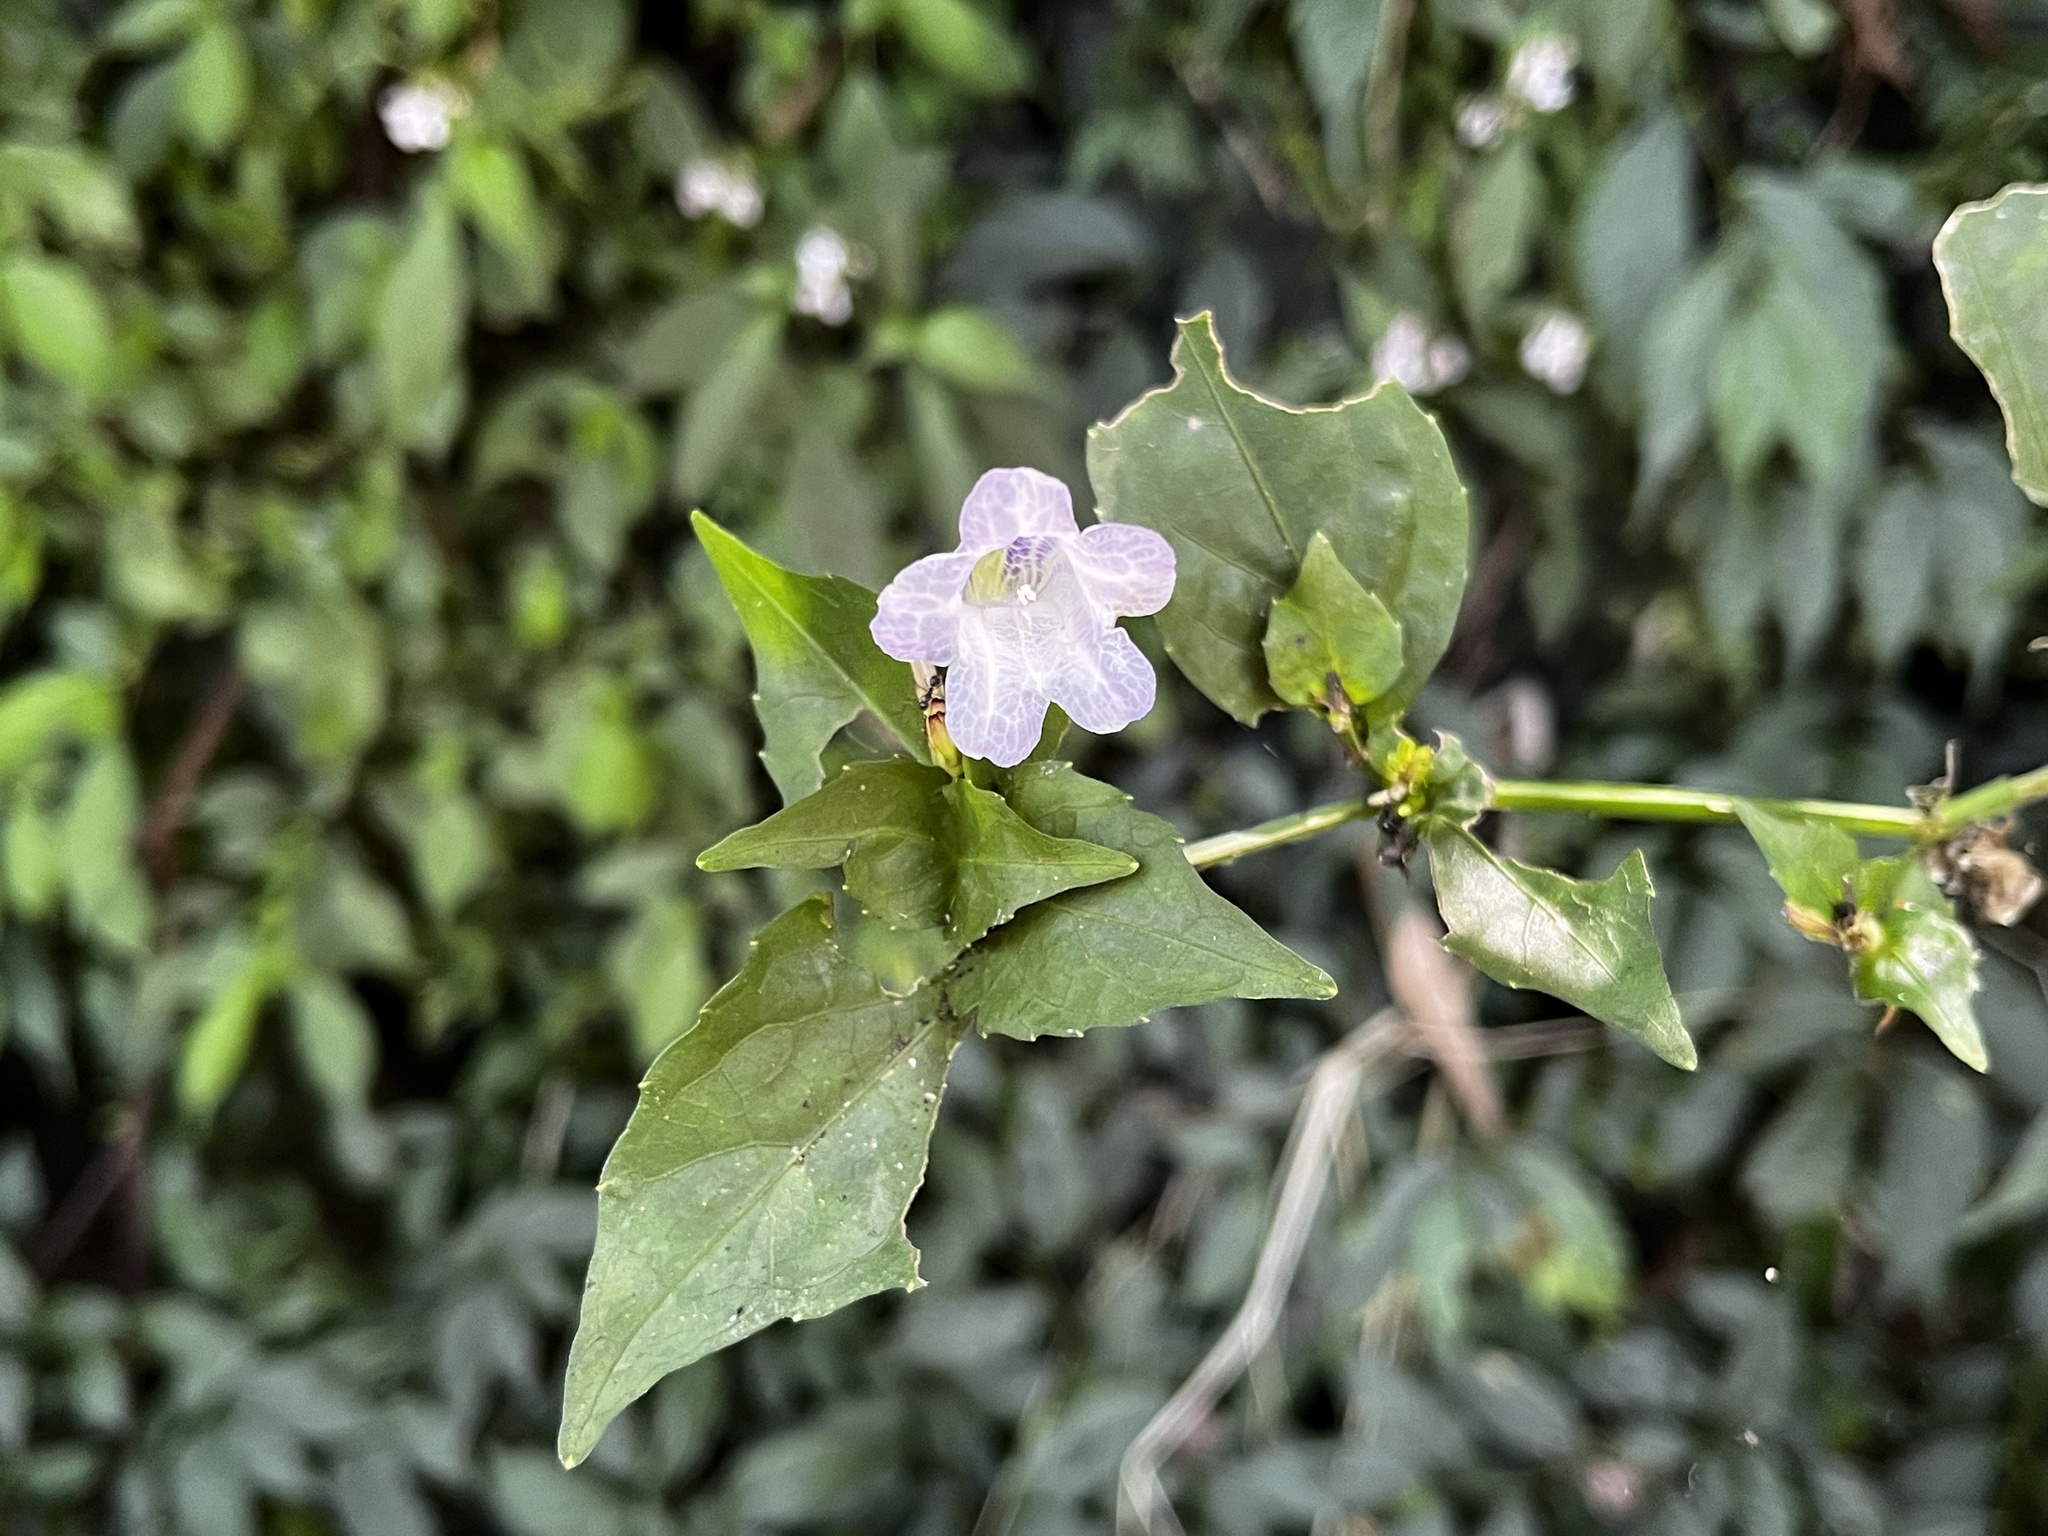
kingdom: Plantae
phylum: Tracheophyta
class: Magnoliopsida
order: Lamiales
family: Acanthaceae
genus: Strobilanthes
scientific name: Strobilanthes flexicaulis
